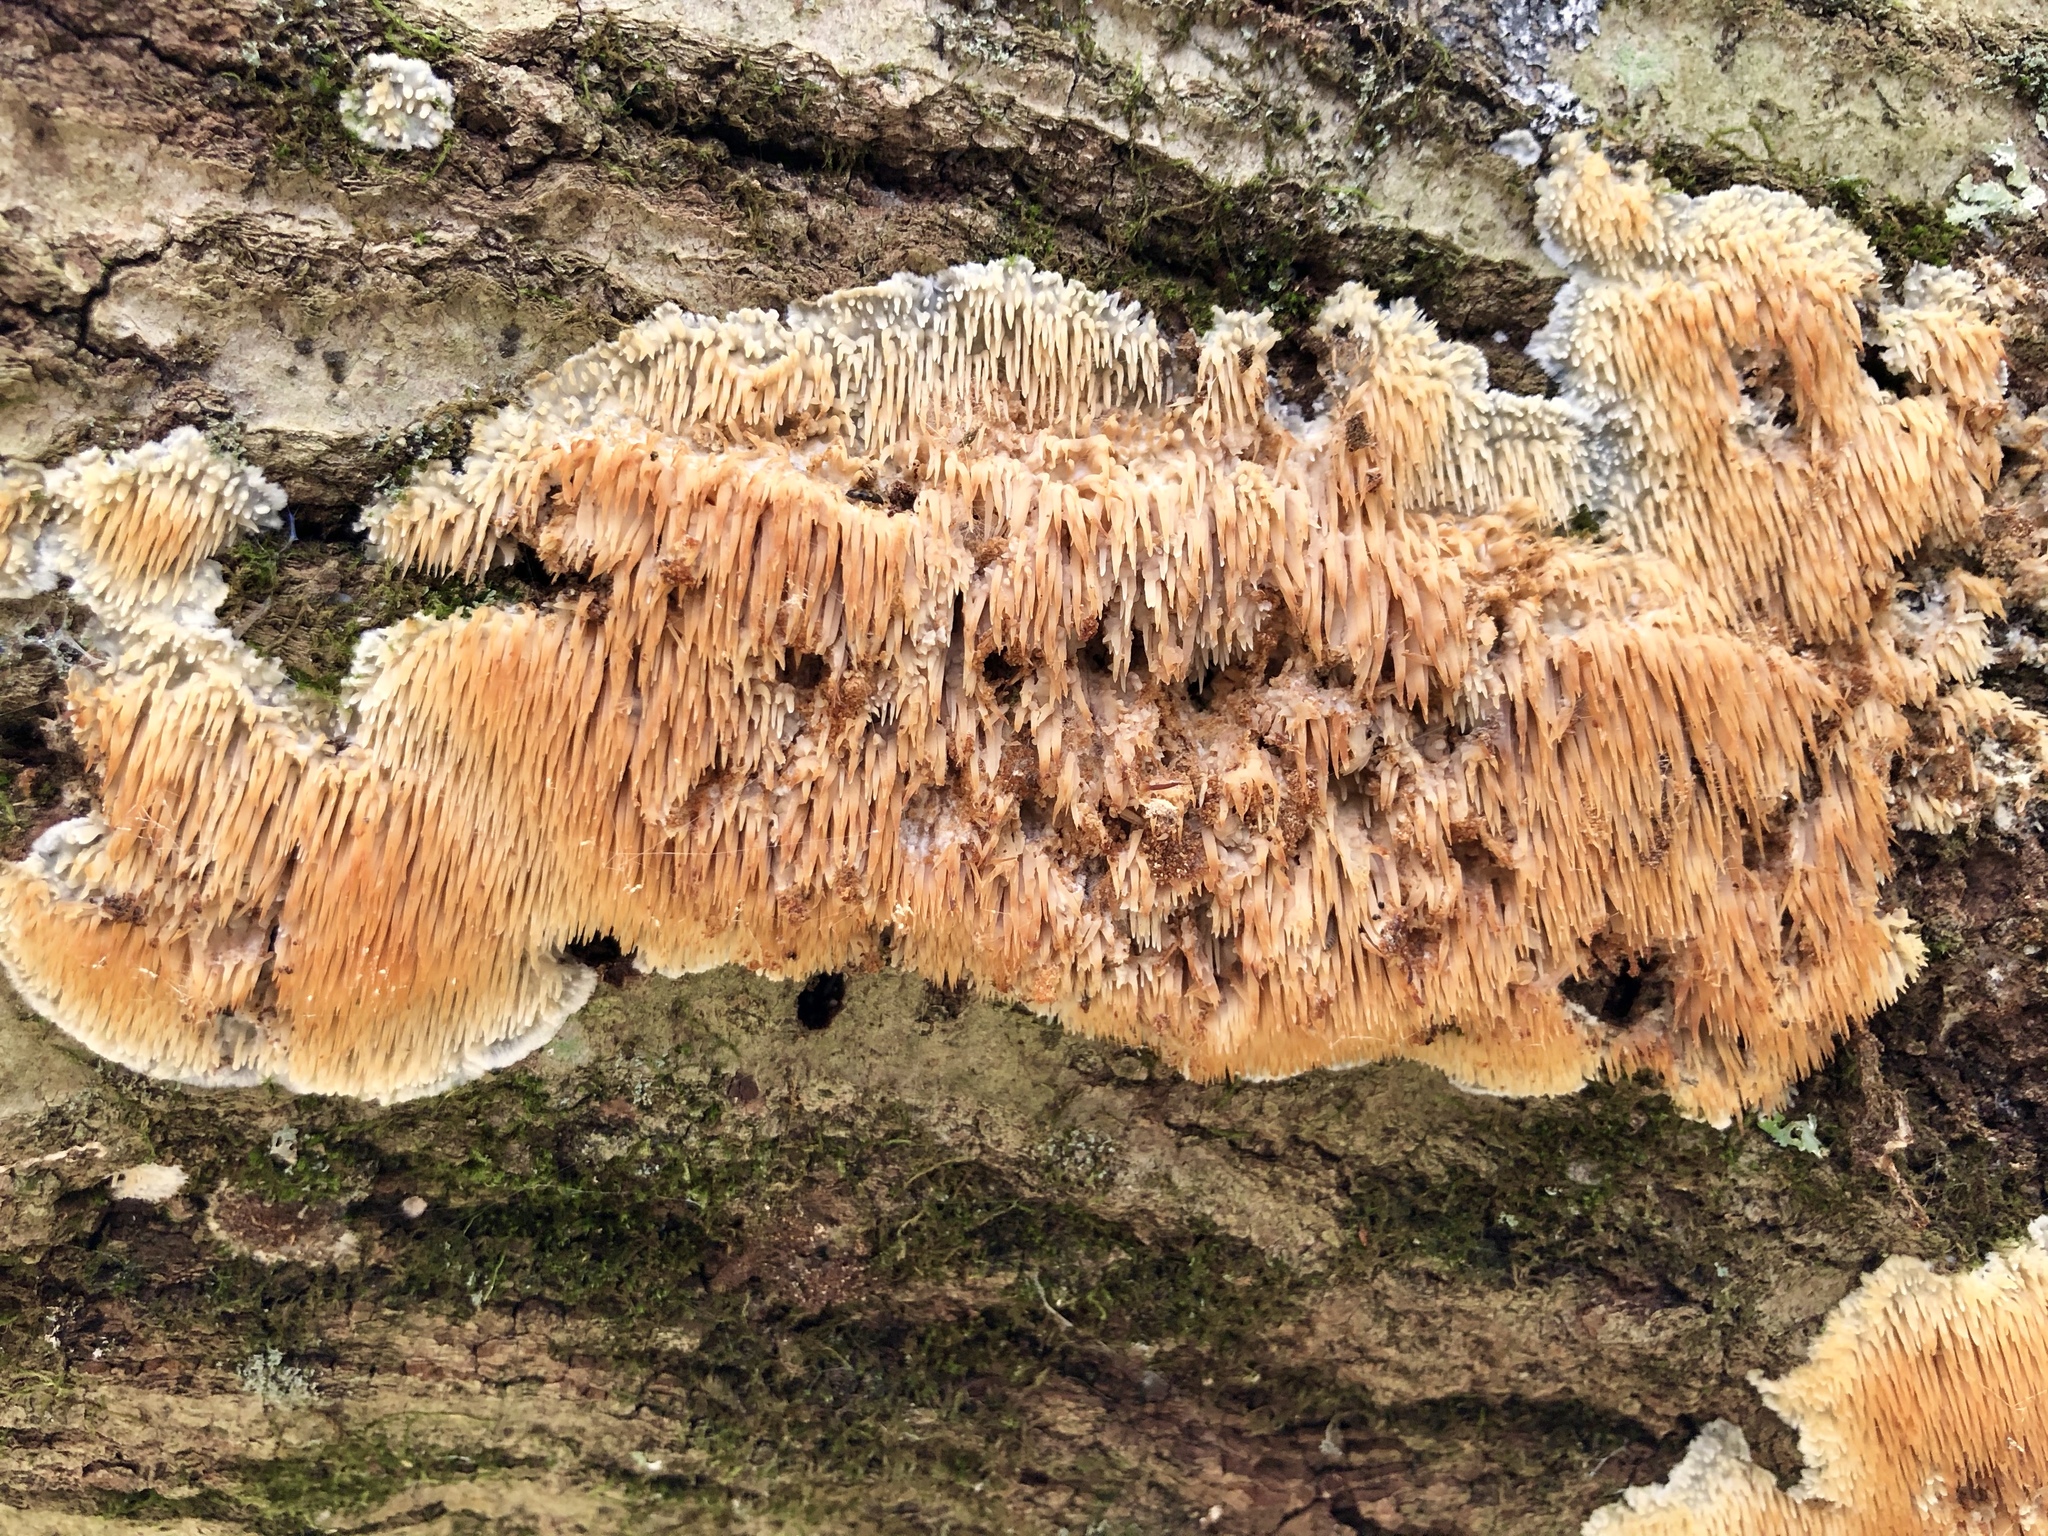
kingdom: Fungi
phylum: Basidiomycota
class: Agaricomycetes
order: Agaricales
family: Radulomycetaceae
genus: Radulomyces
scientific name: Radulomyces copelandii
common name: Asian beauty
